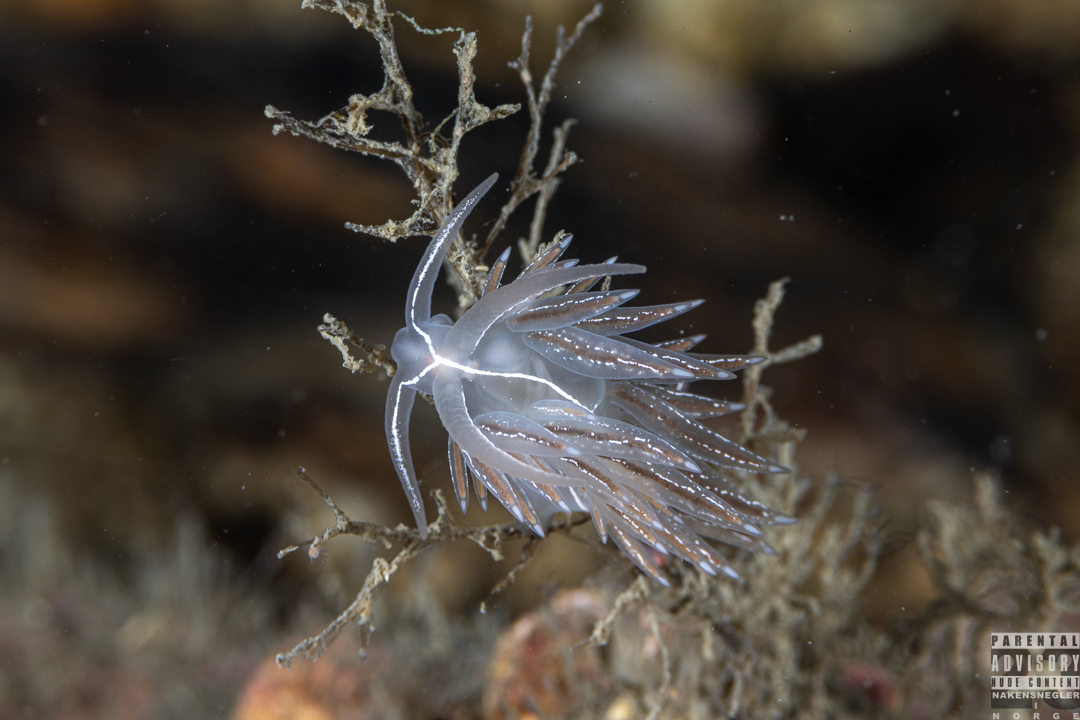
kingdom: Animalia
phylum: Mollusca
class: Gastropoda
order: Nudibranchia
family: Coryphellidae
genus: Coryphella
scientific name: Coryphella chriskaugei
